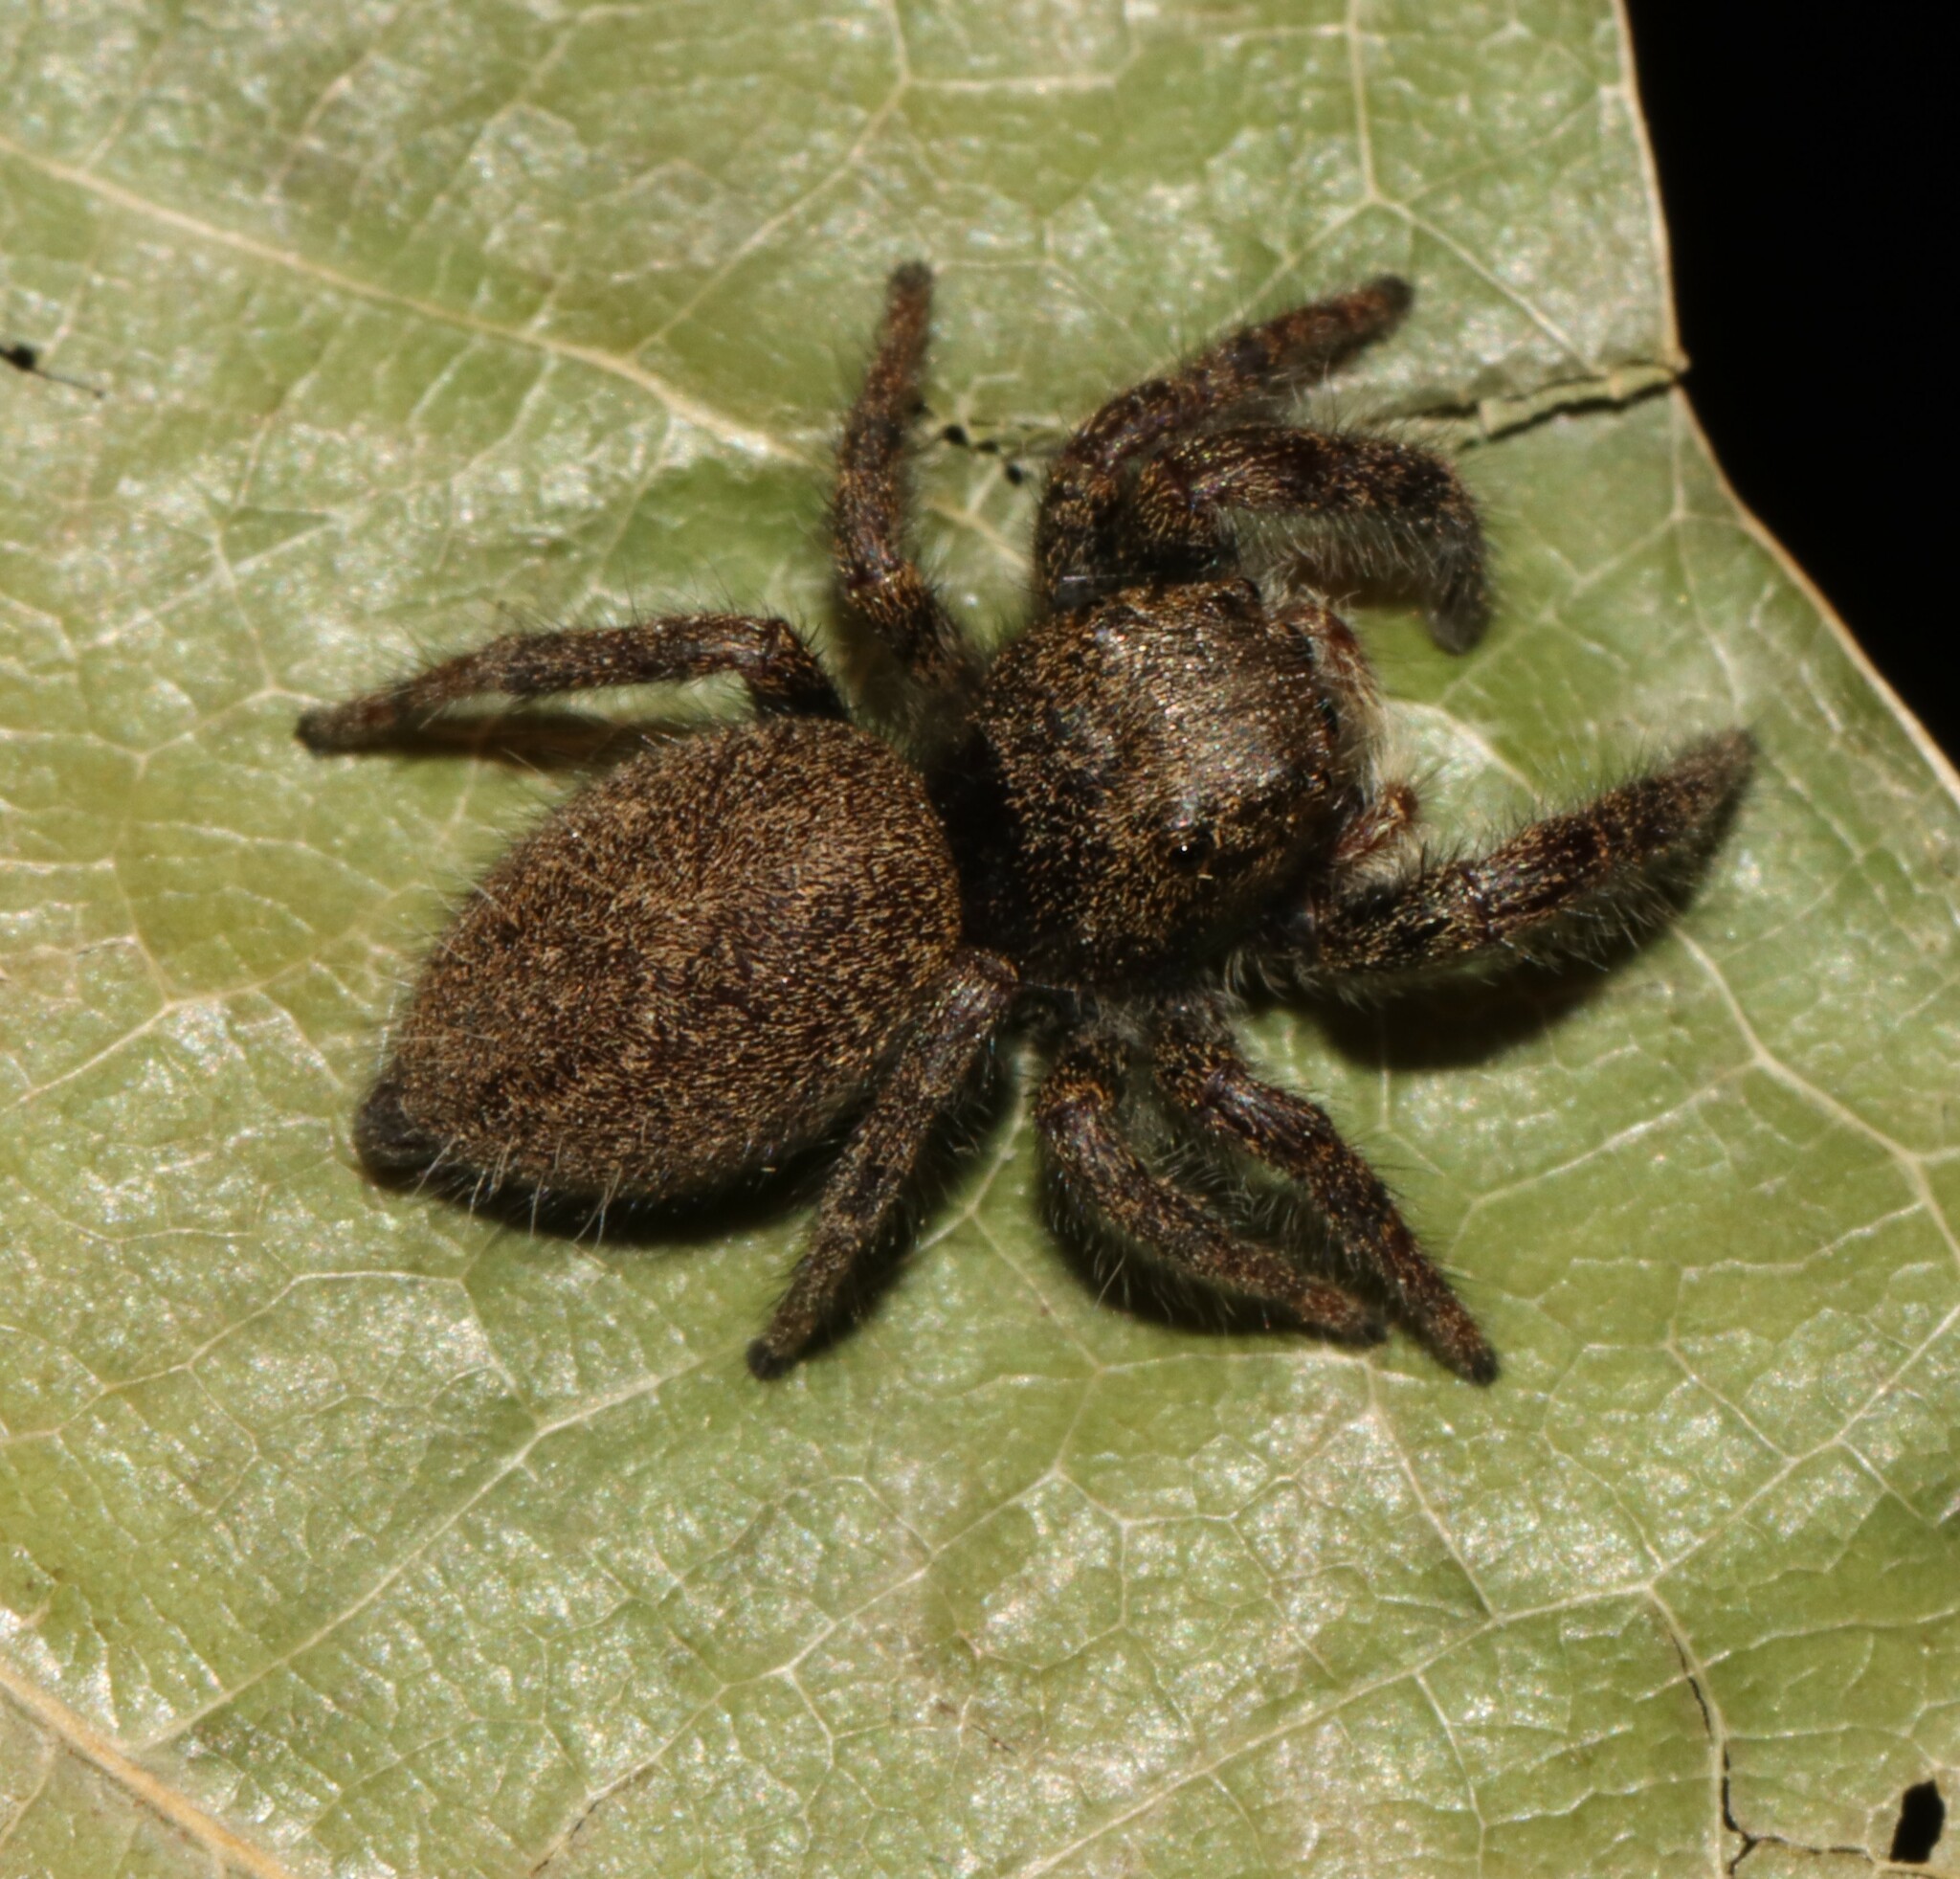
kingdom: Animalia
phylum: Arthropoda
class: Arachnida
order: Araneae
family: Salticidae
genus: Phidippus
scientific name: Phidippus princeps
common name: Grayish jumping spider
